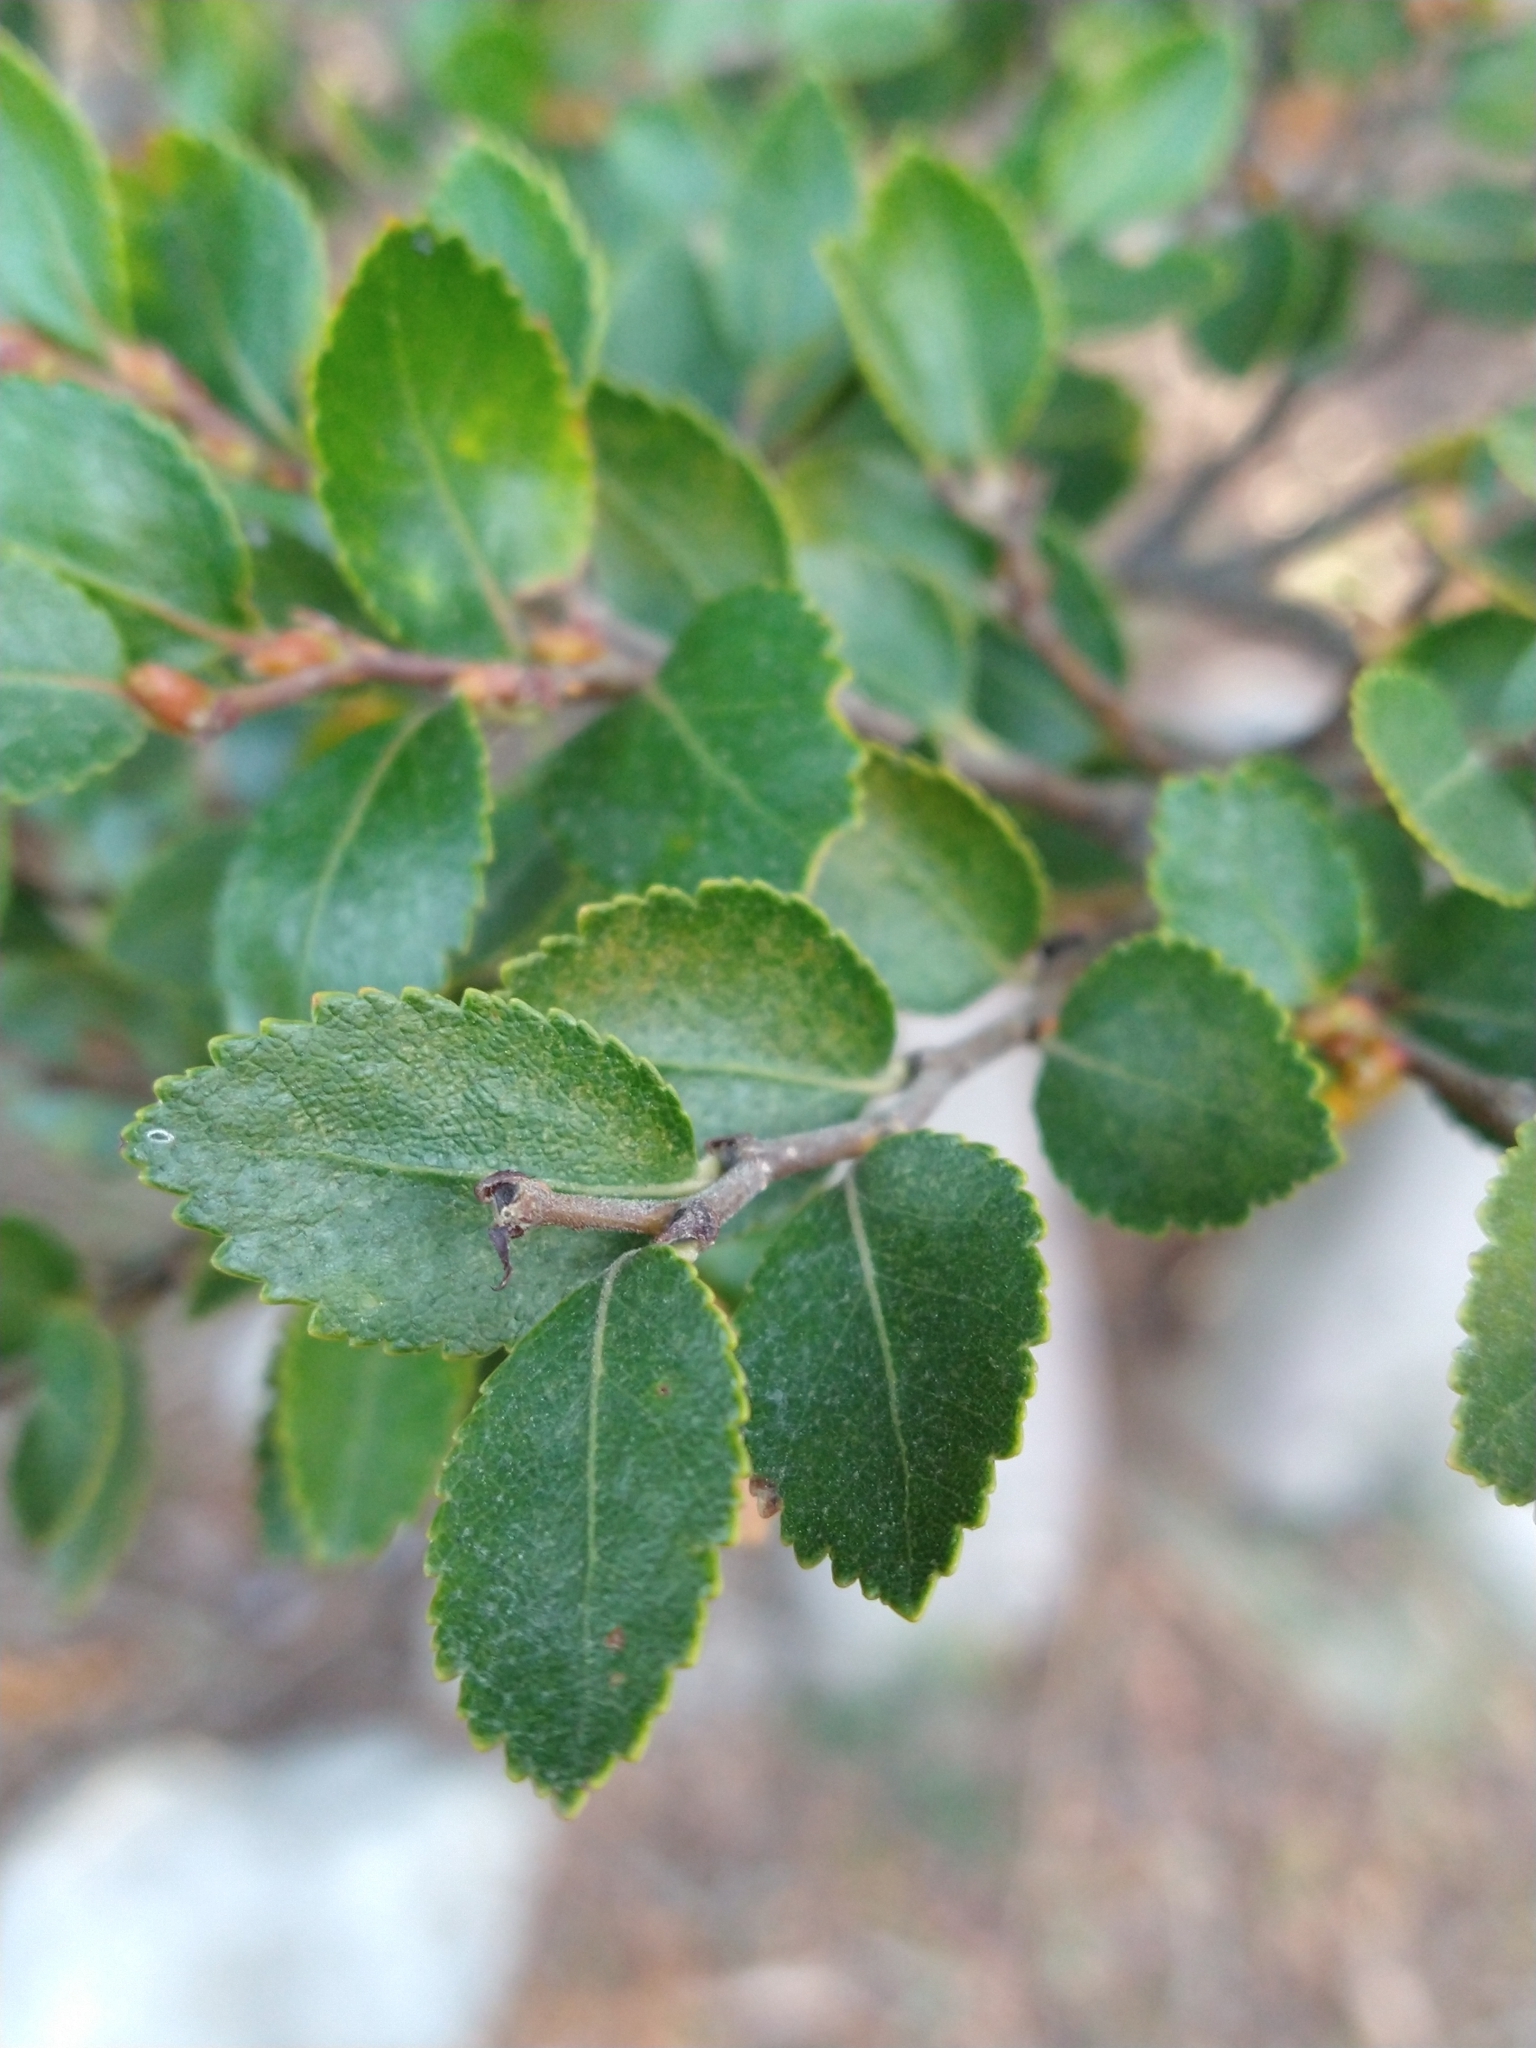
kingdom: Plantae
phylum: Tracheophyta
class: Magnoliopsida
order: Fagales
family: Nothofagaceae
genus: Nothofagus
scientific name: Nothofagus betuloides
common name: Magellan's beech
